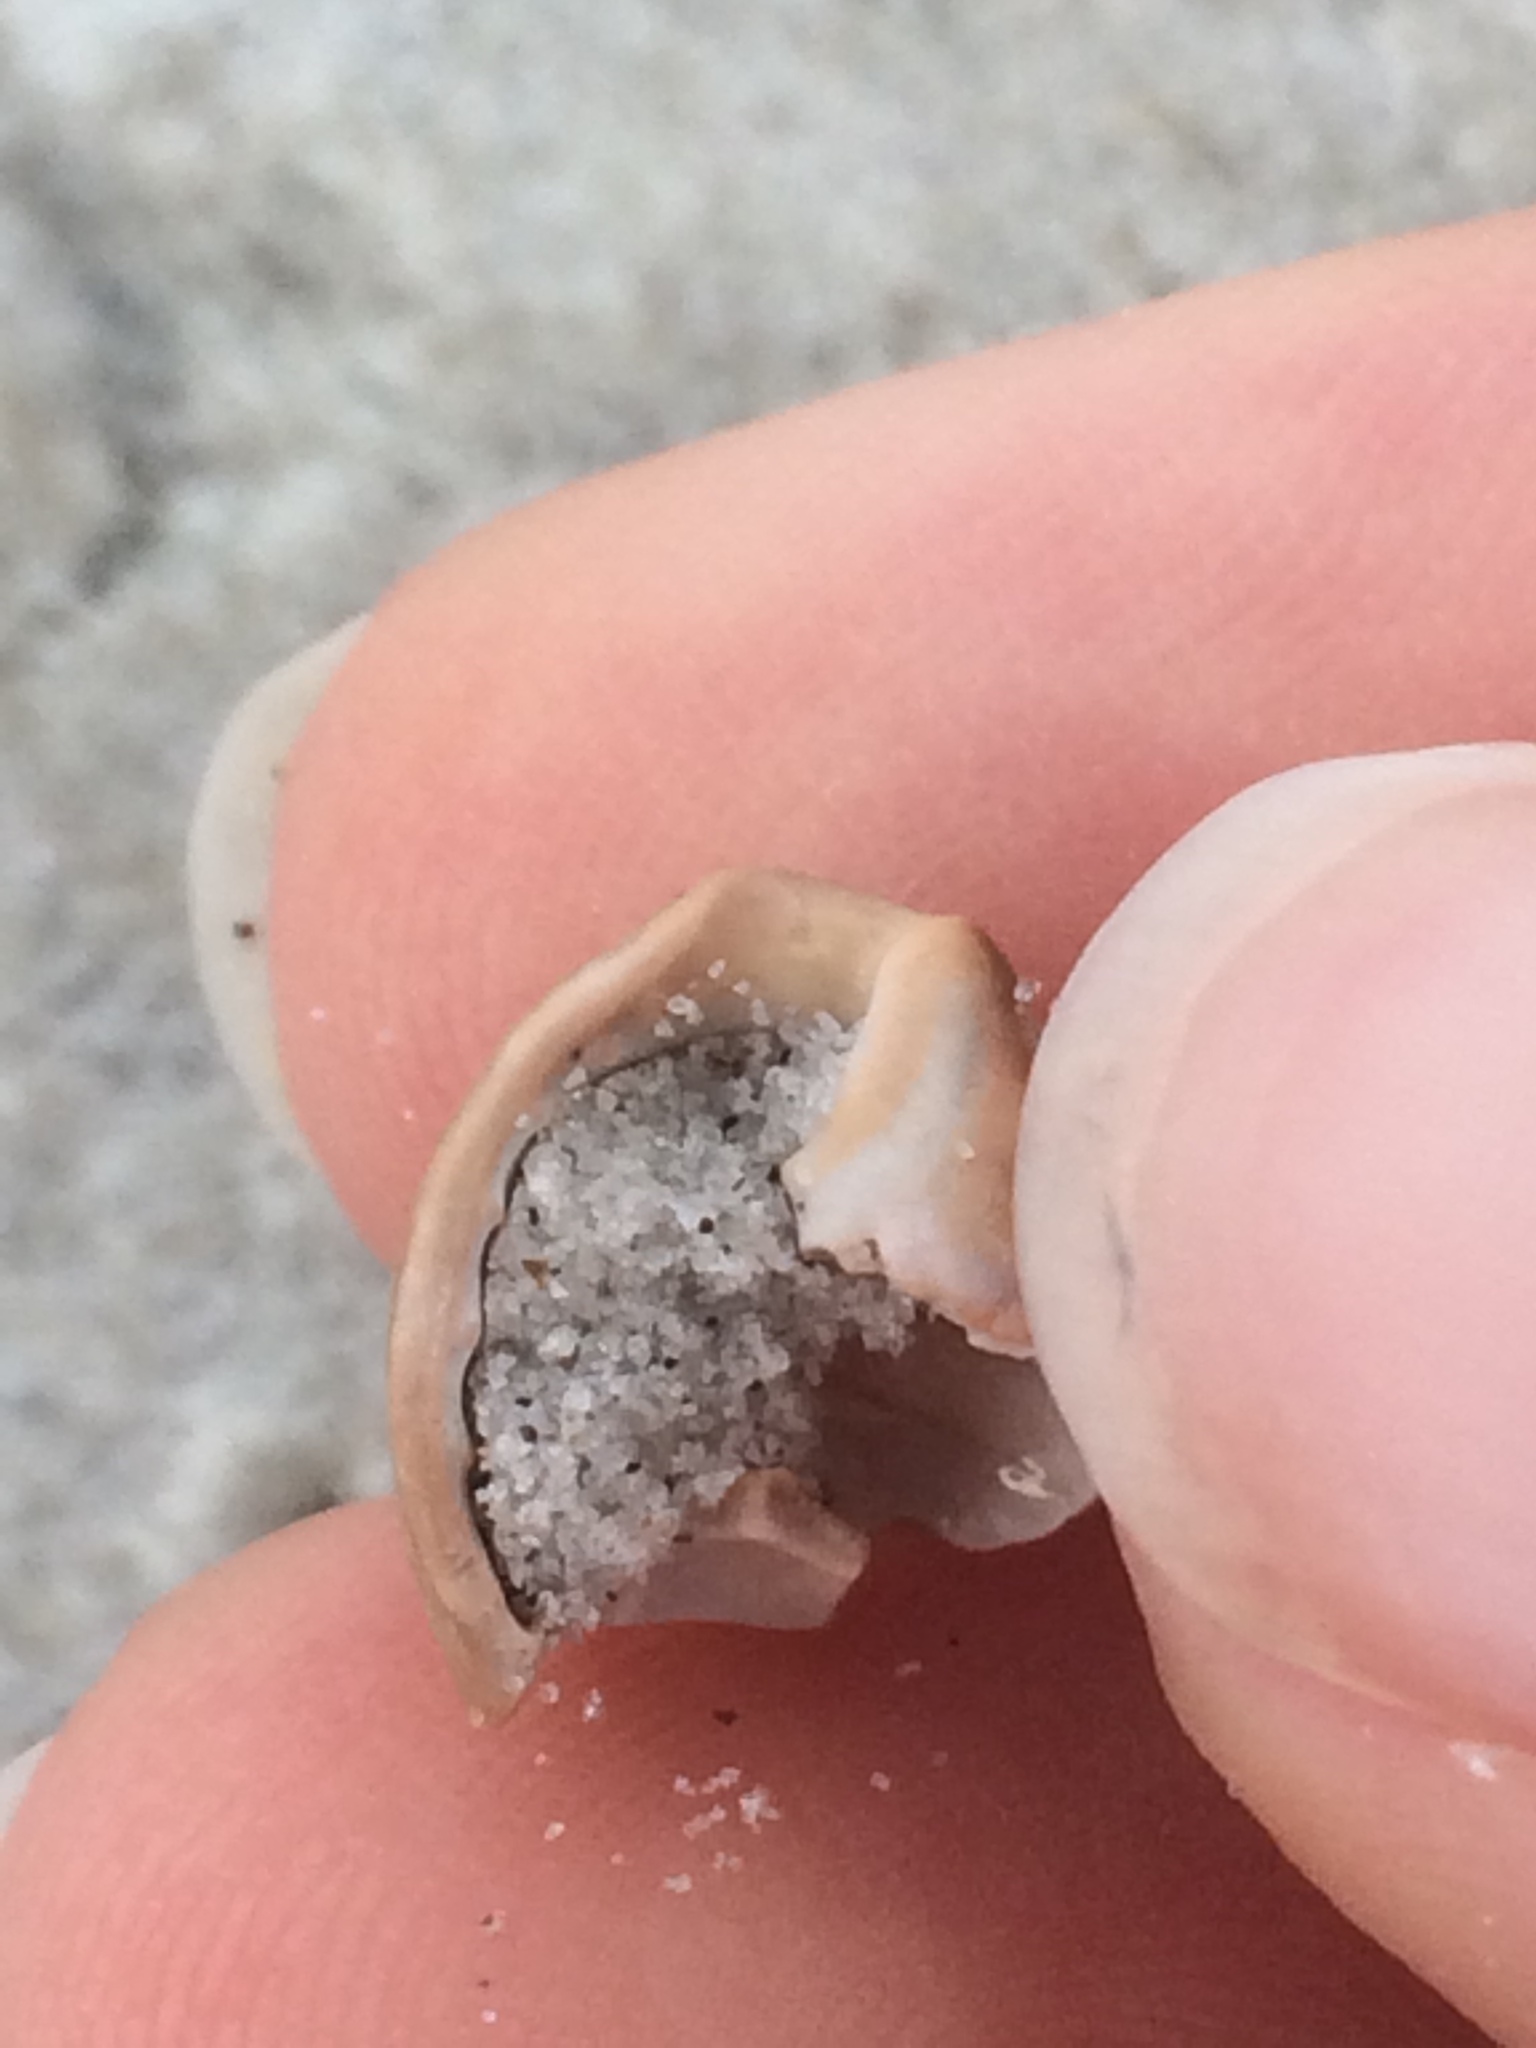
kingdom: Animalia
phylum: Mollusca
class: Gastropoda
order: Neogastropoda
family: Nassariidae
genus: Ilyanassa
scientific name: Ilyanassa obsoleta
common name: Eastern mudsnail
